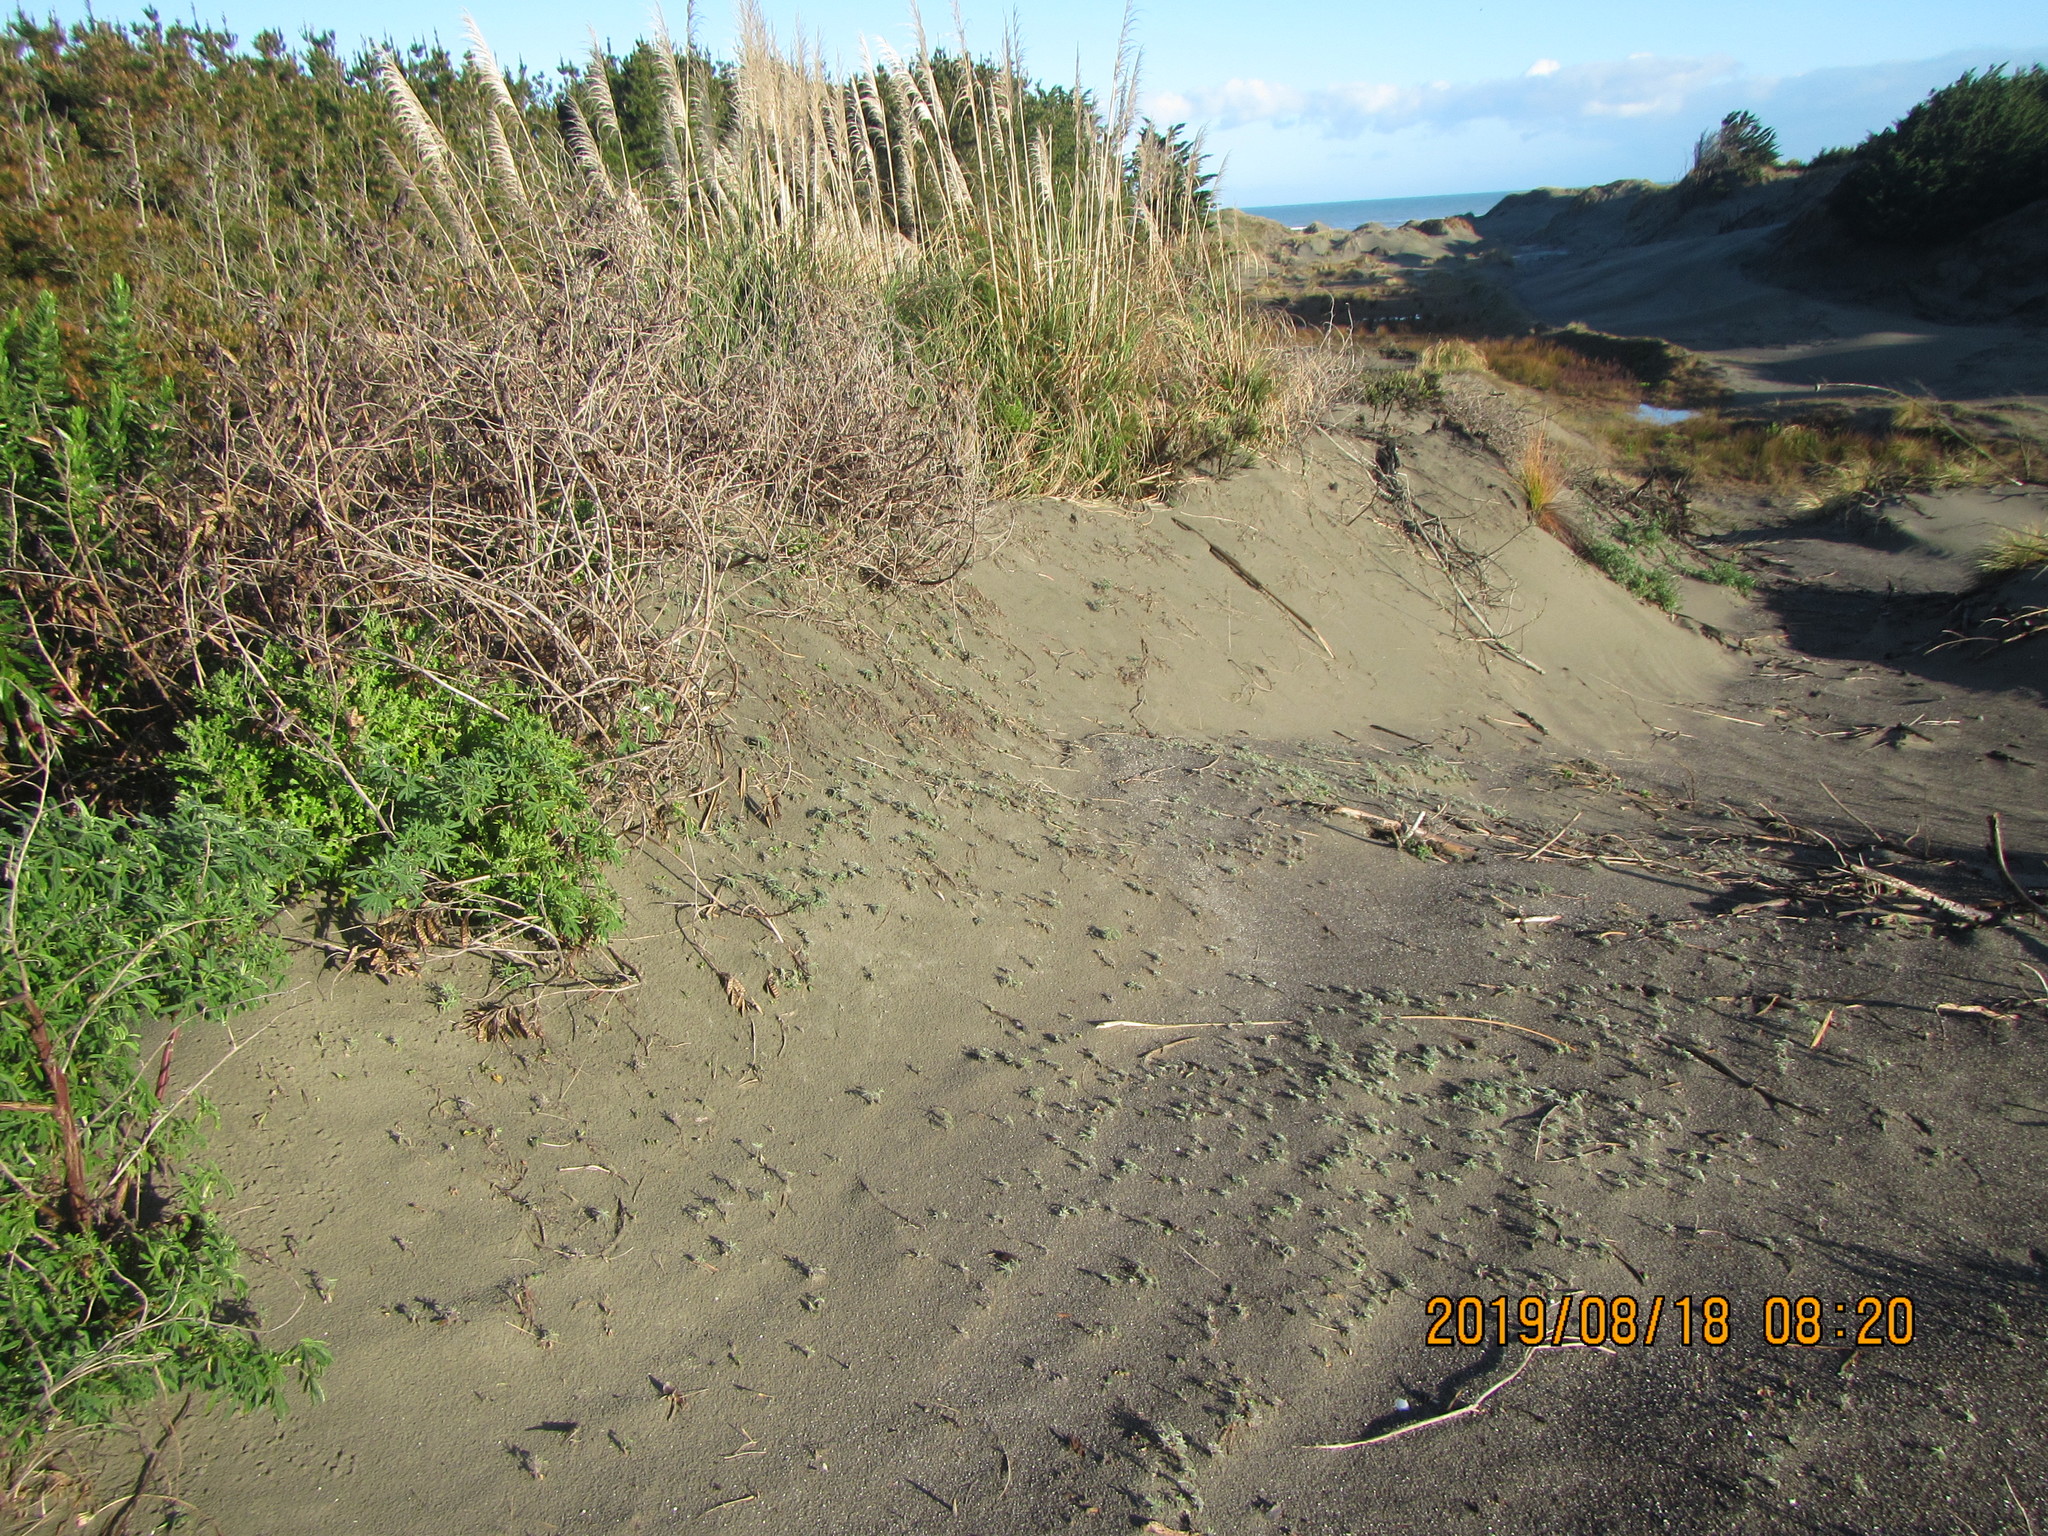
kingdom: Plantae
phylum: Tracheophyta
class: Magnoliopsida
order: Fabales
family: Fabaceae
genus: Lupinus
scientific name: Lupinus arboreus
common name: Yellow bush lupine
